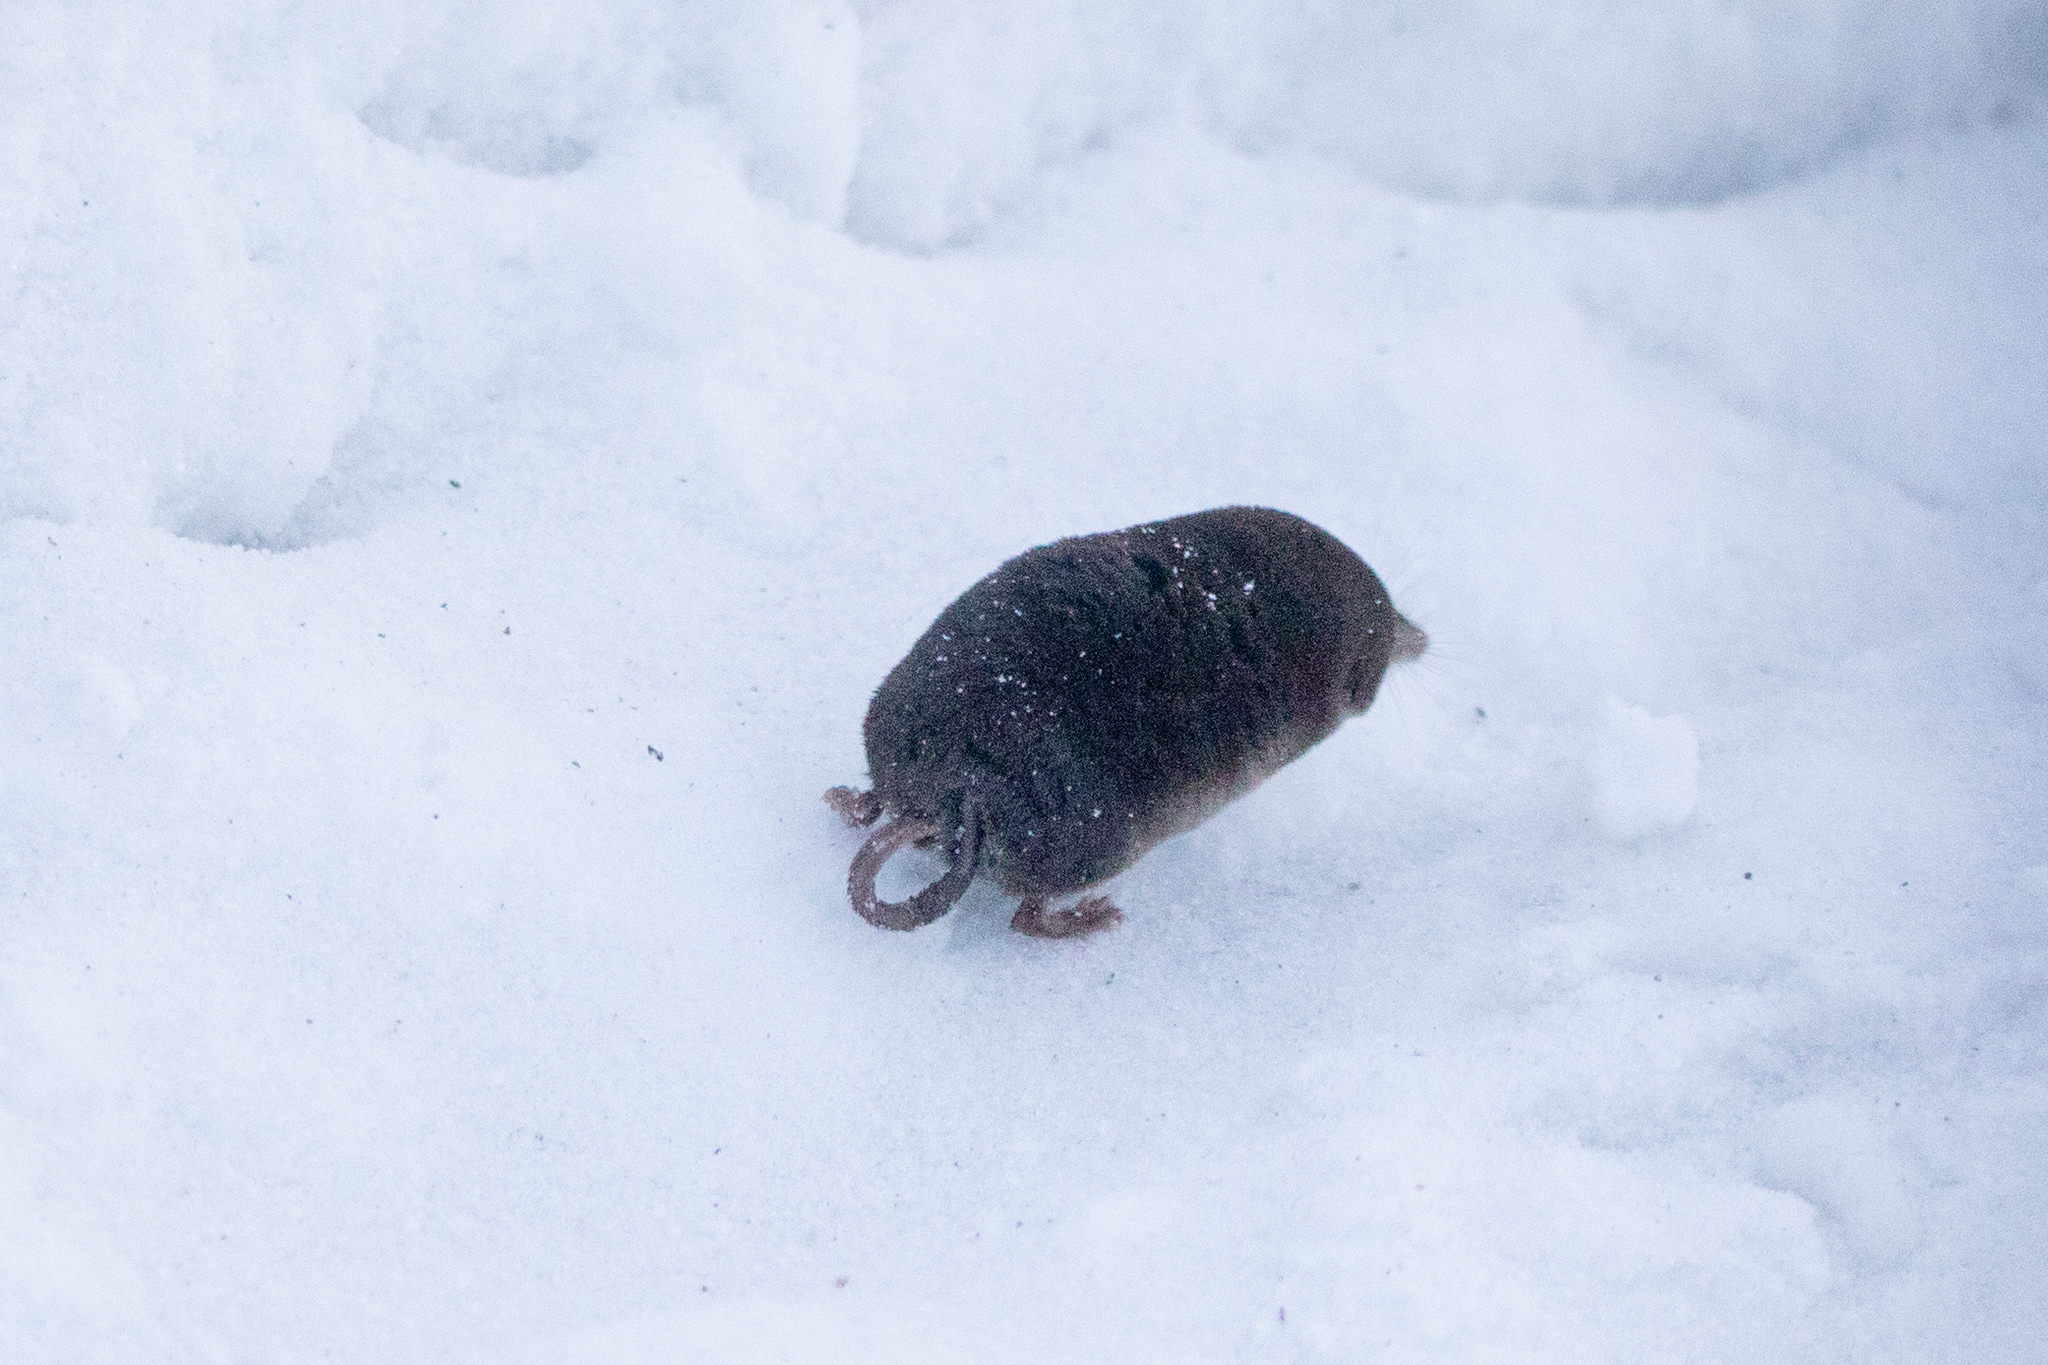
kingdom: Animalia
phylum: Chordata
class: Mammalia
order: Soricomorpha
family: Soricidae
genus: Sorex
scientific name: Sorex araneus
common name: Common shrew
